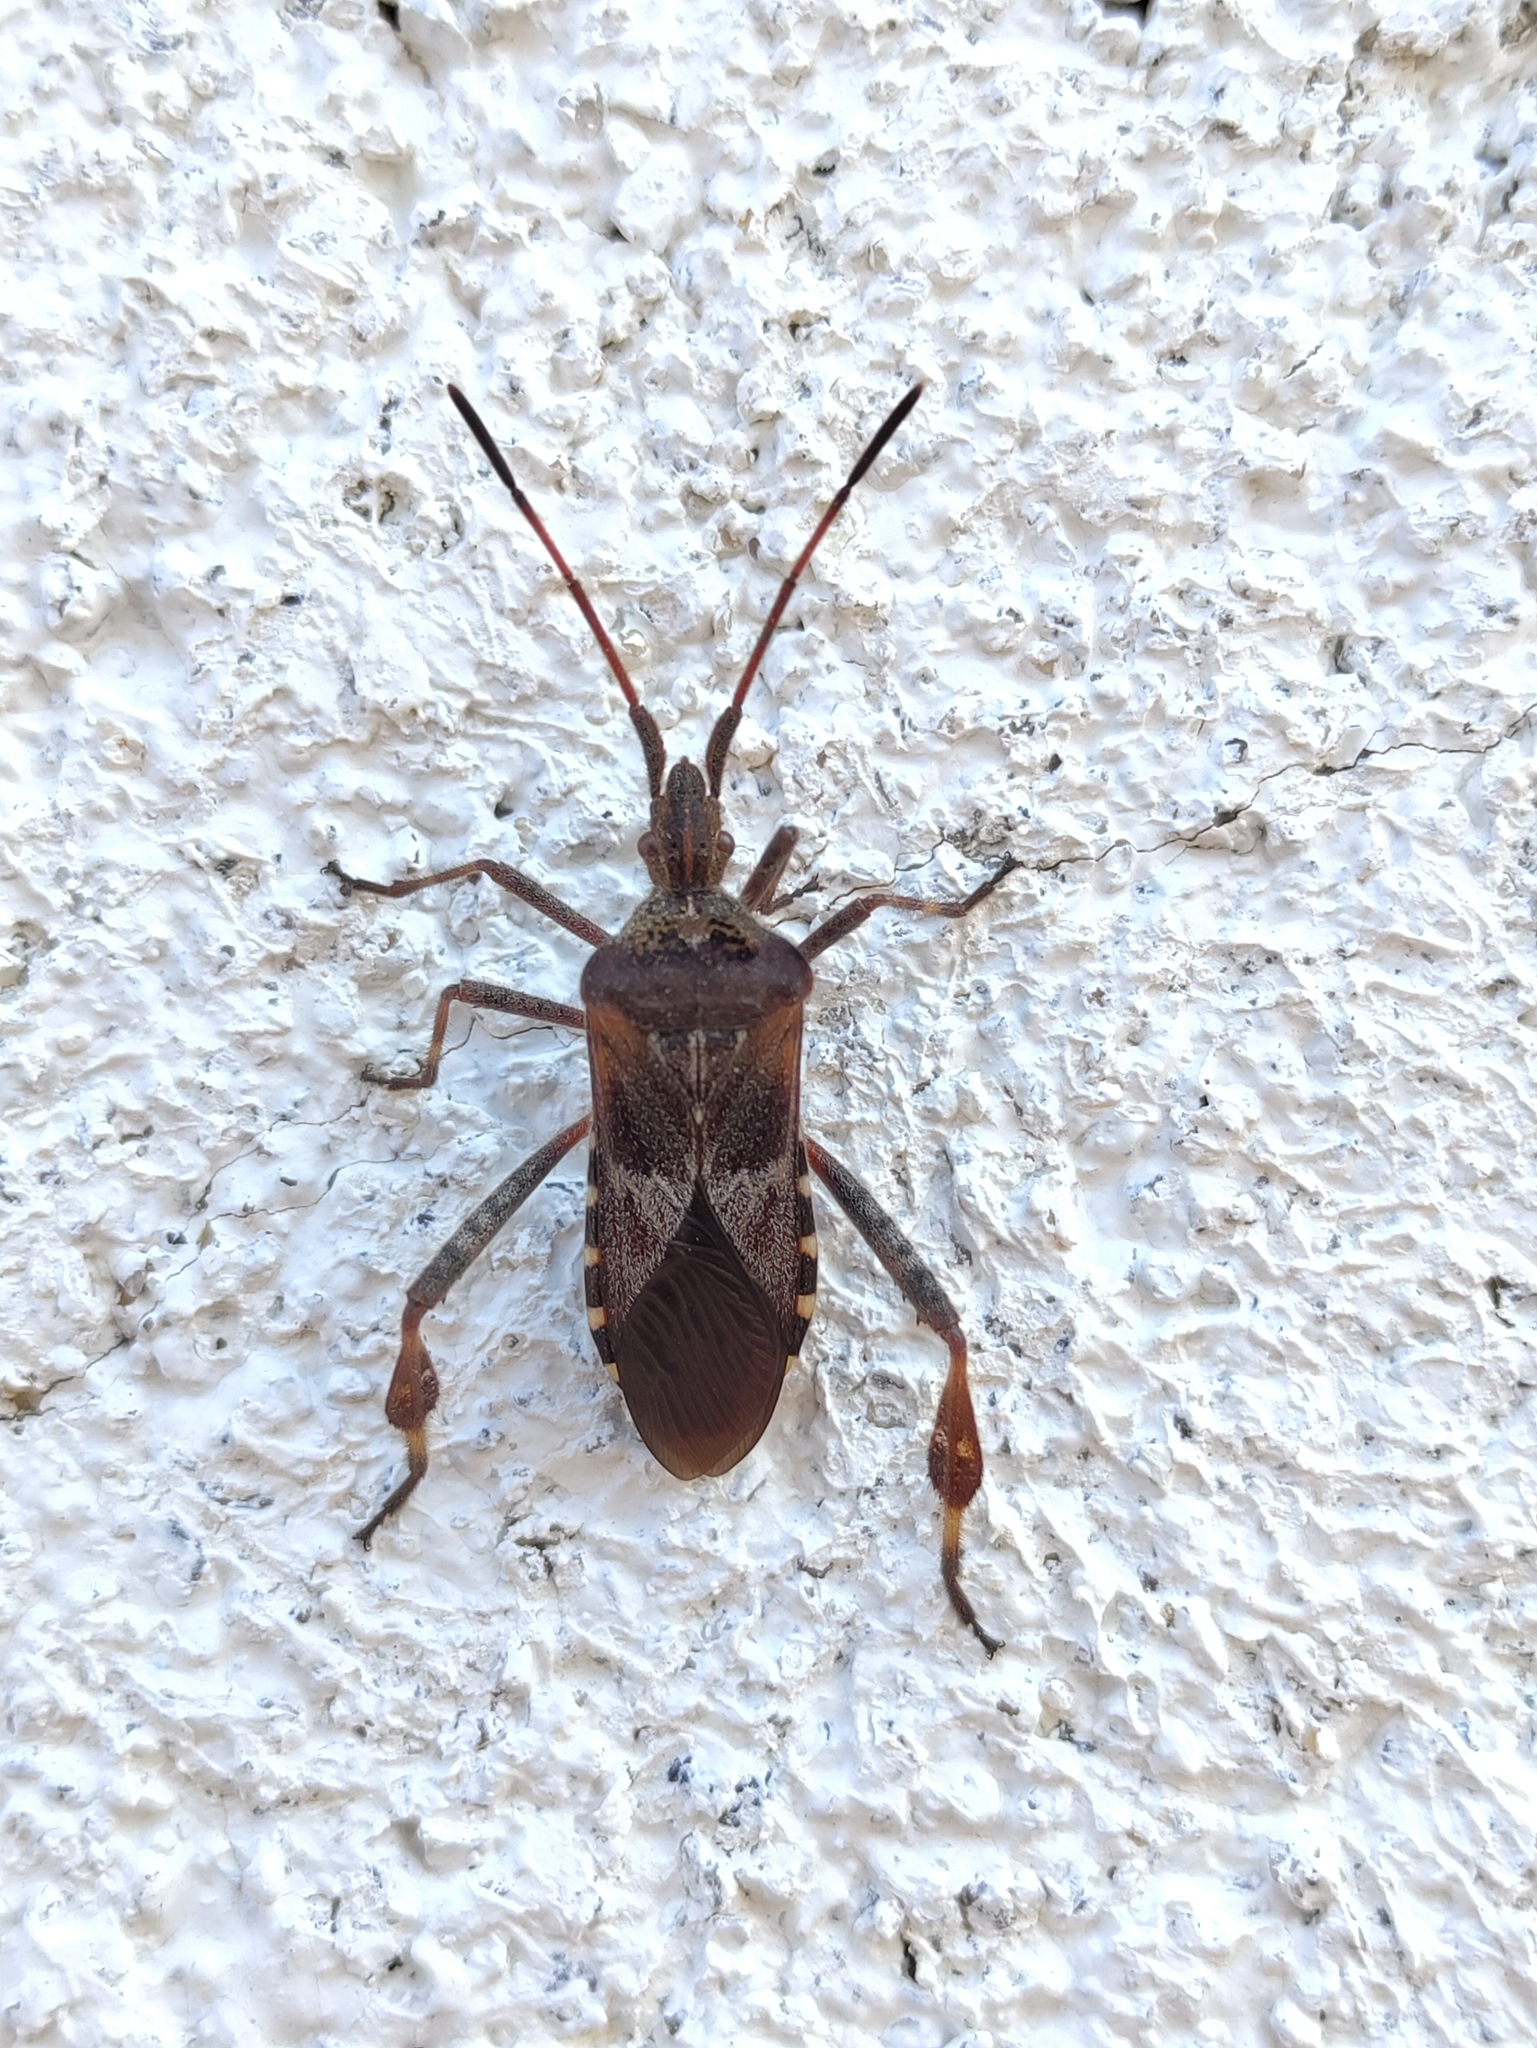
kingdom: Animalia
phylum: Arthropoda
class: Insecta
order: Hemiptera
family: Coreidae
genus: Leptoglossus
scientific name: Leptoglossus occidentalis
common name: Western conifer-seed bug
